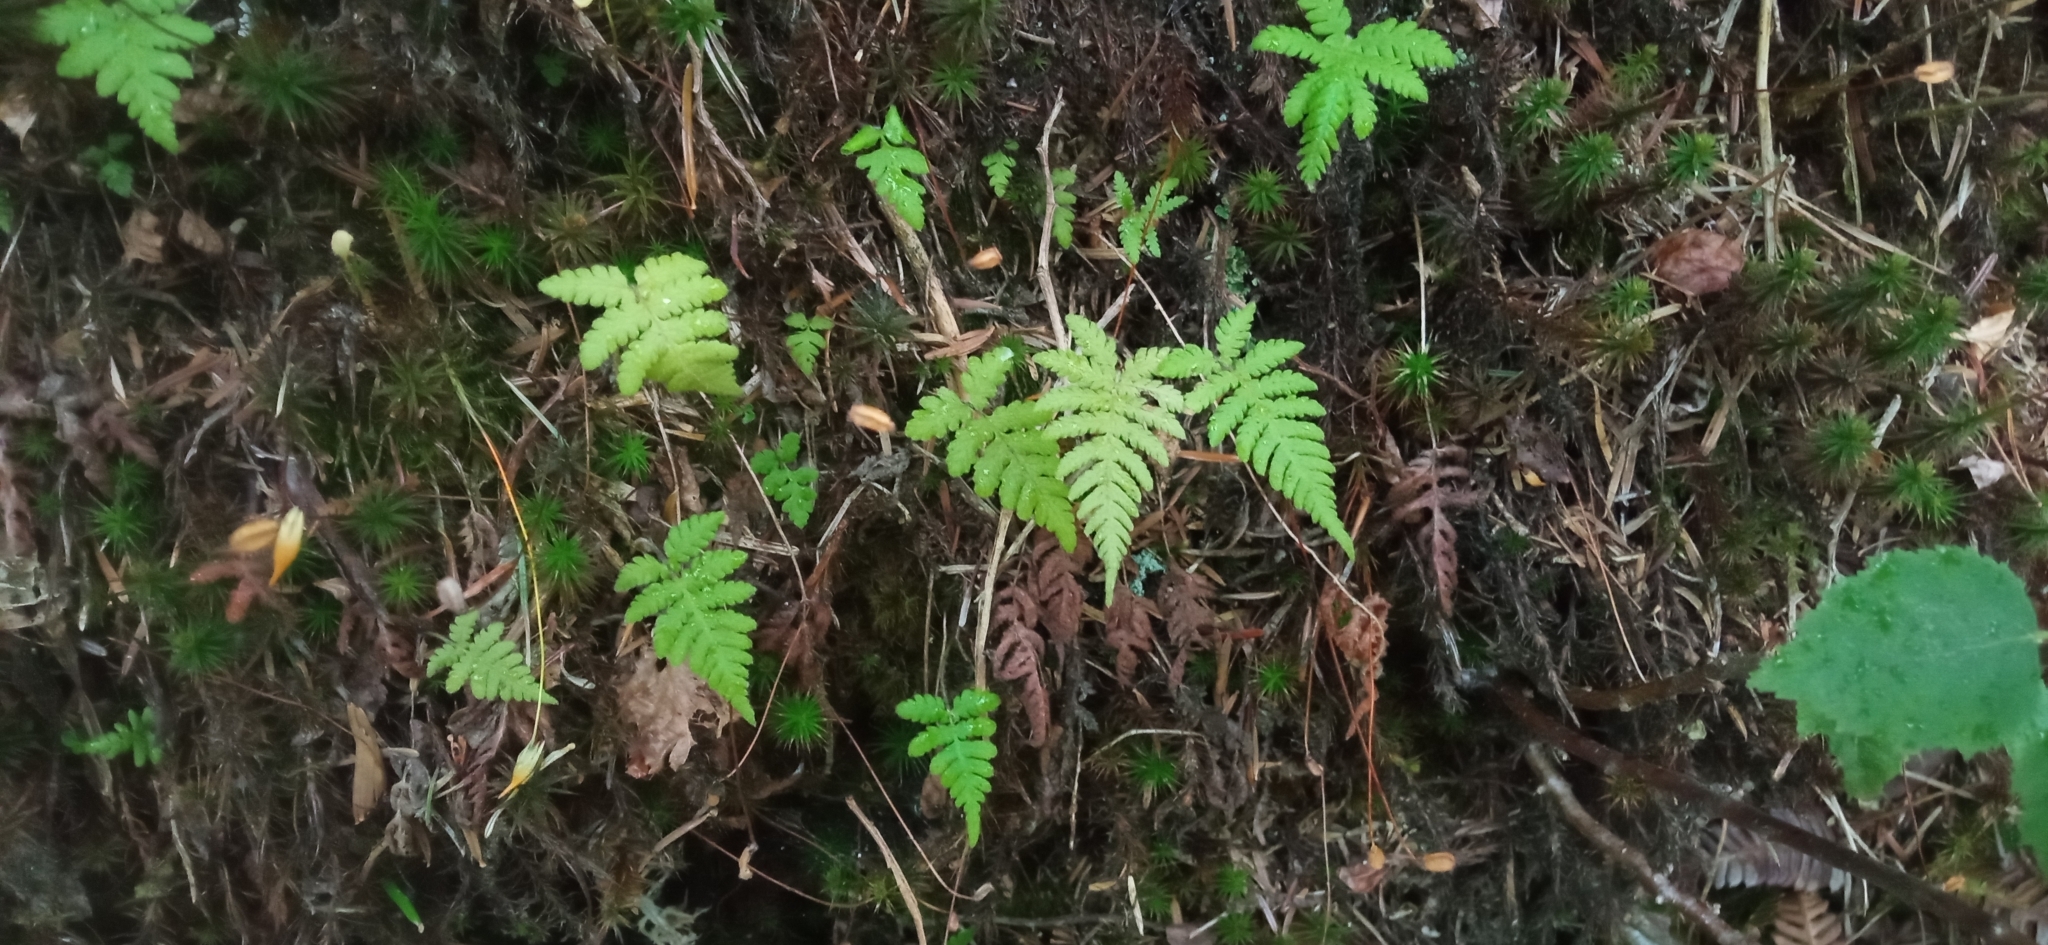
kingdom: Plantae
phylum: Tracheophyta
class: Polypodiopsida
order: Polypodiales
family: Thelypteridaceae
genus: Phegopteris
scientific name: Phegopteris connectilis
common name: Beech fern
